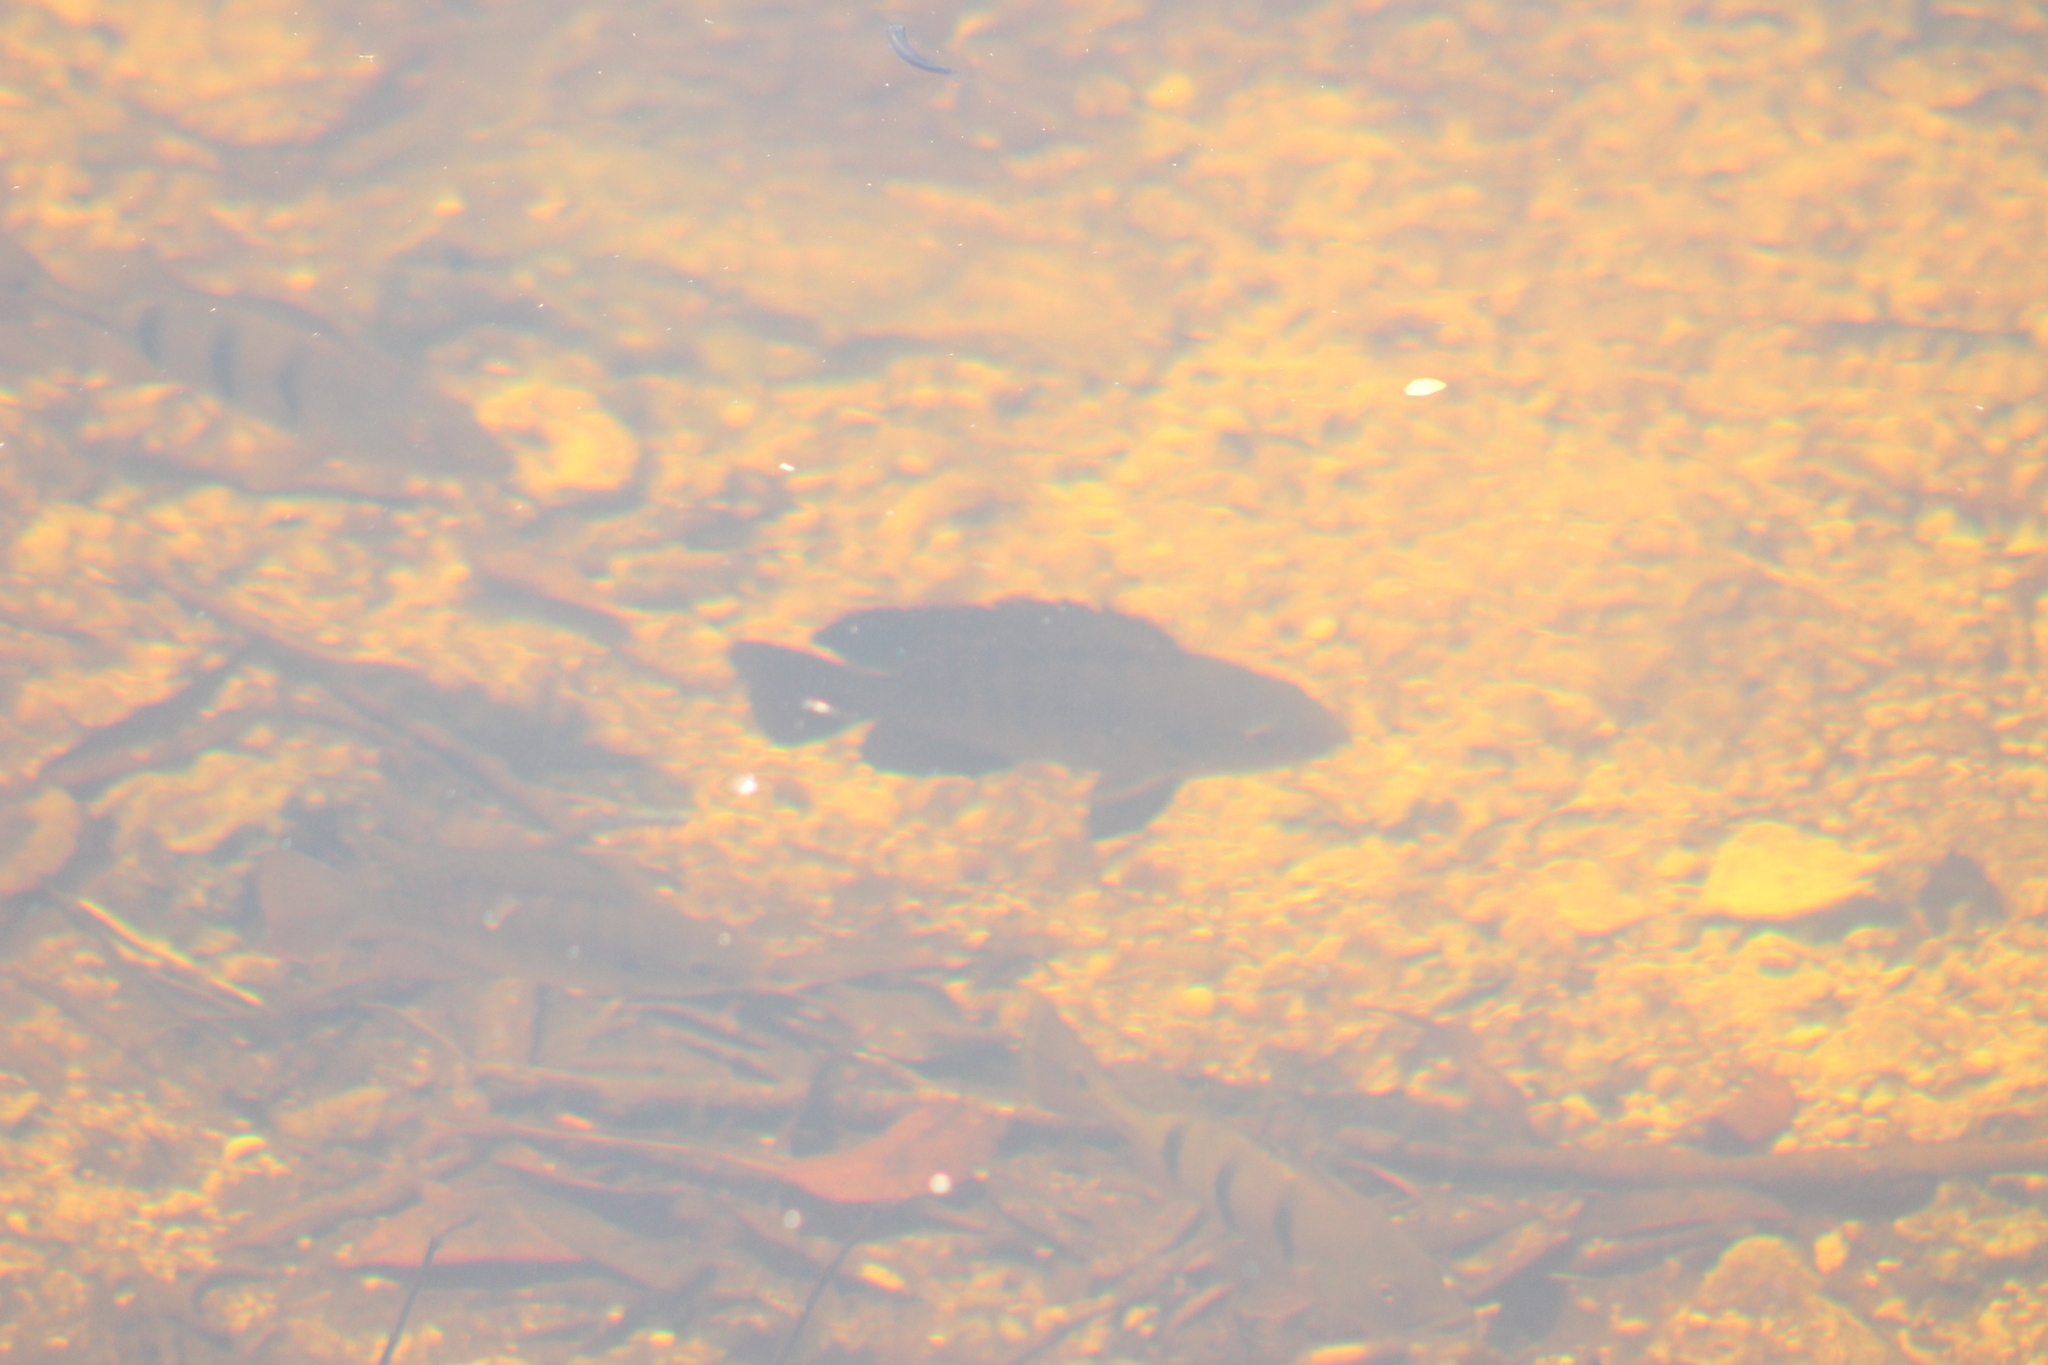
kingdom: Animalia
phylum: Chordata
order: Perciformes
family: Cichlidae
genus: Mayaheros
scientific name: Mayaheros urophthalmus
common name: Mayan cichlid
